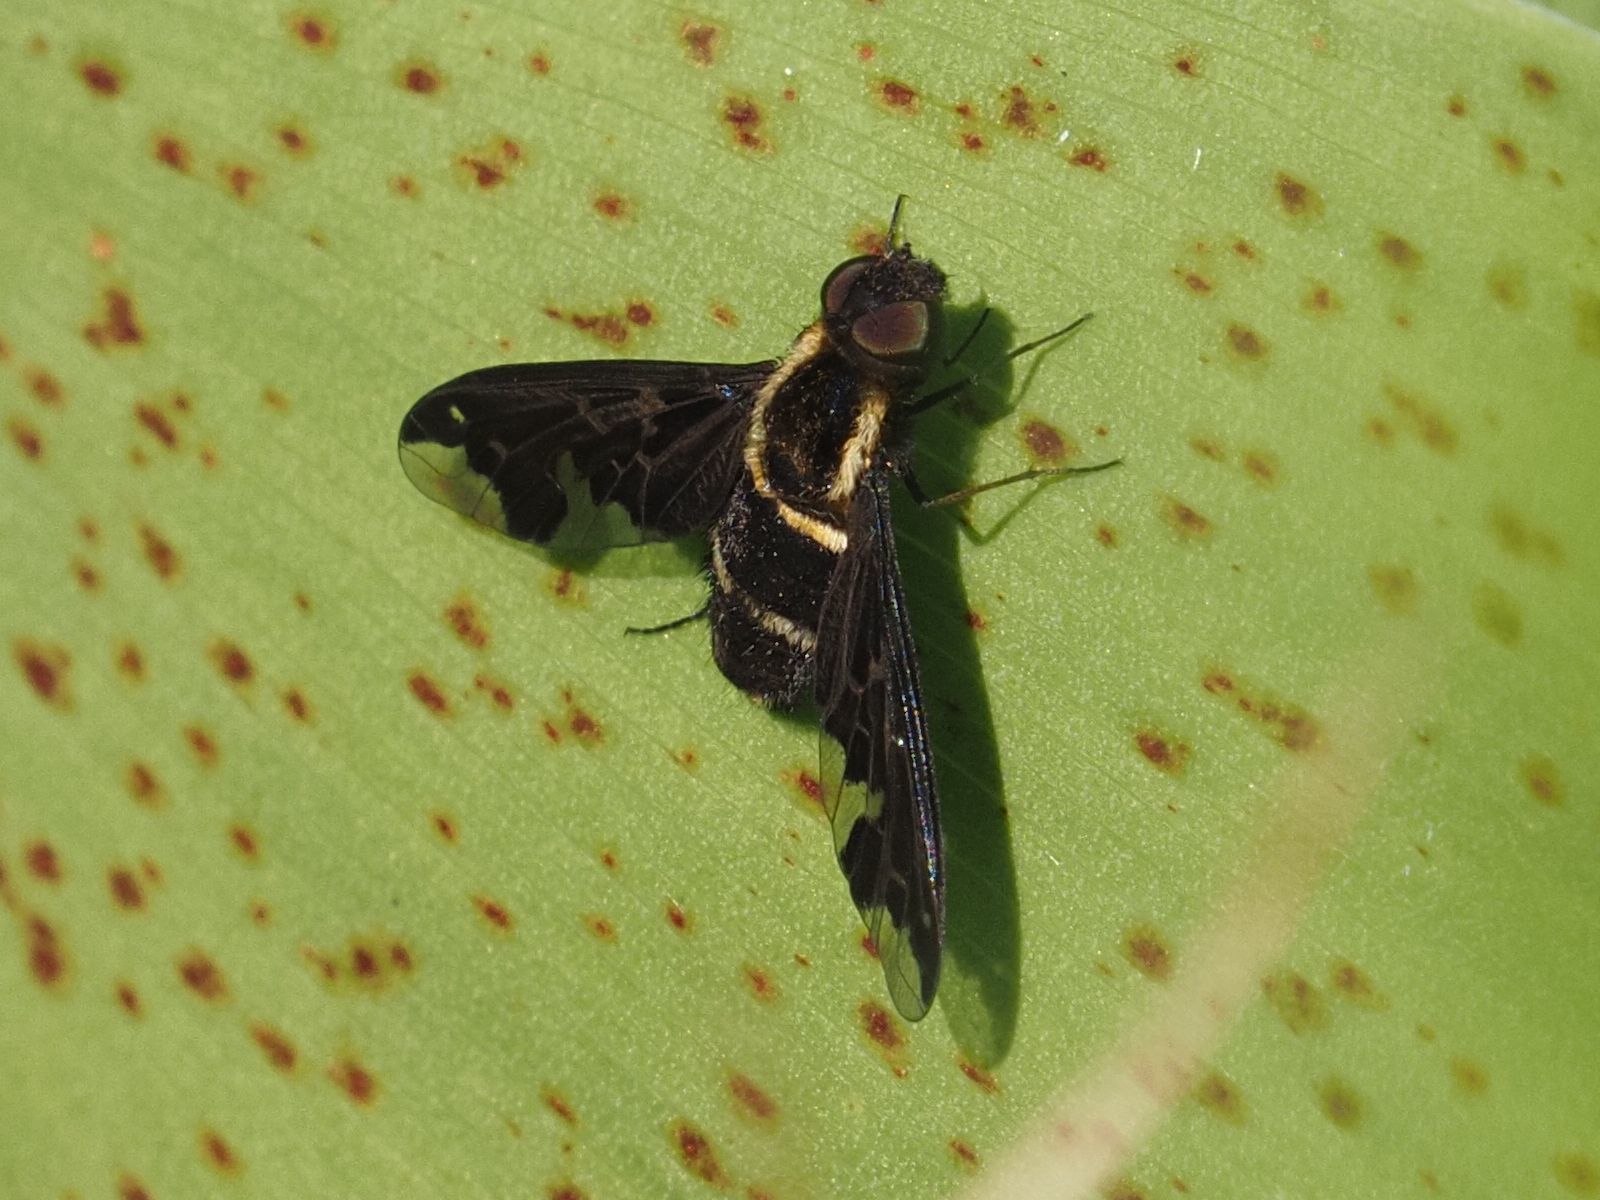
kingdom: Animalia
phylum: Arthropoda
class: Insecta
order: Diptera
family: Bombyliidae
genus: Hemipenthes
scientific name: Hemipenthes maura
